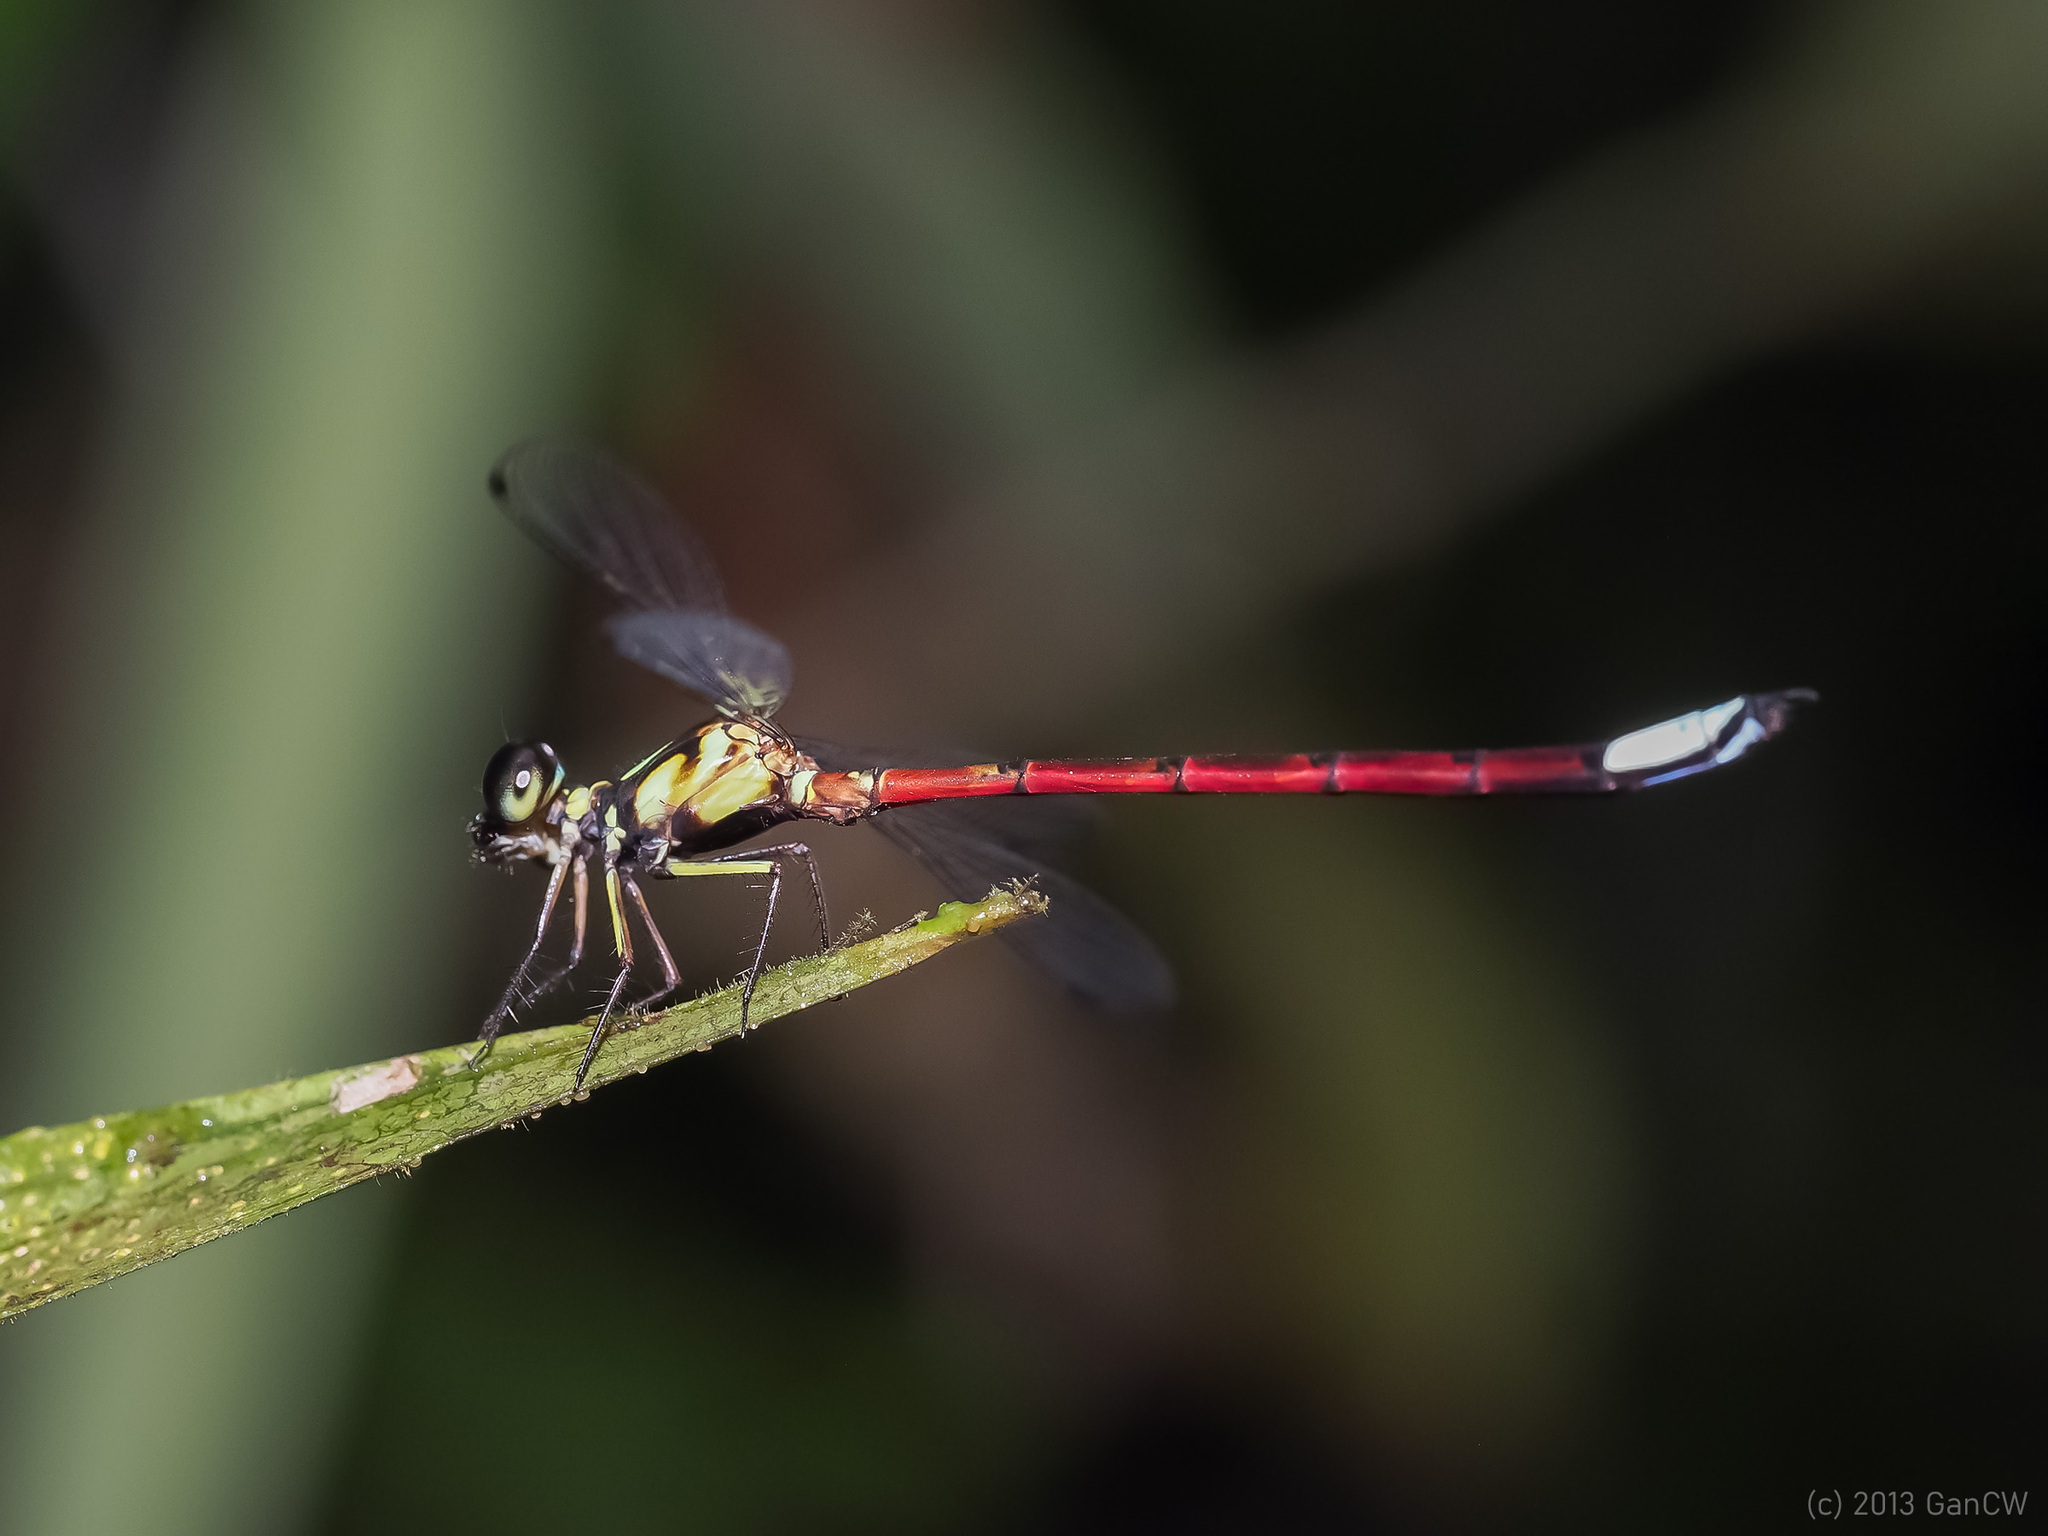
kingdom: Animalia
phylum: Arthropoda
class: Insecta
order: Odonata
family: Philosinidae
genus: Rhinagrion
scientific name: Rhinagrion borneense
